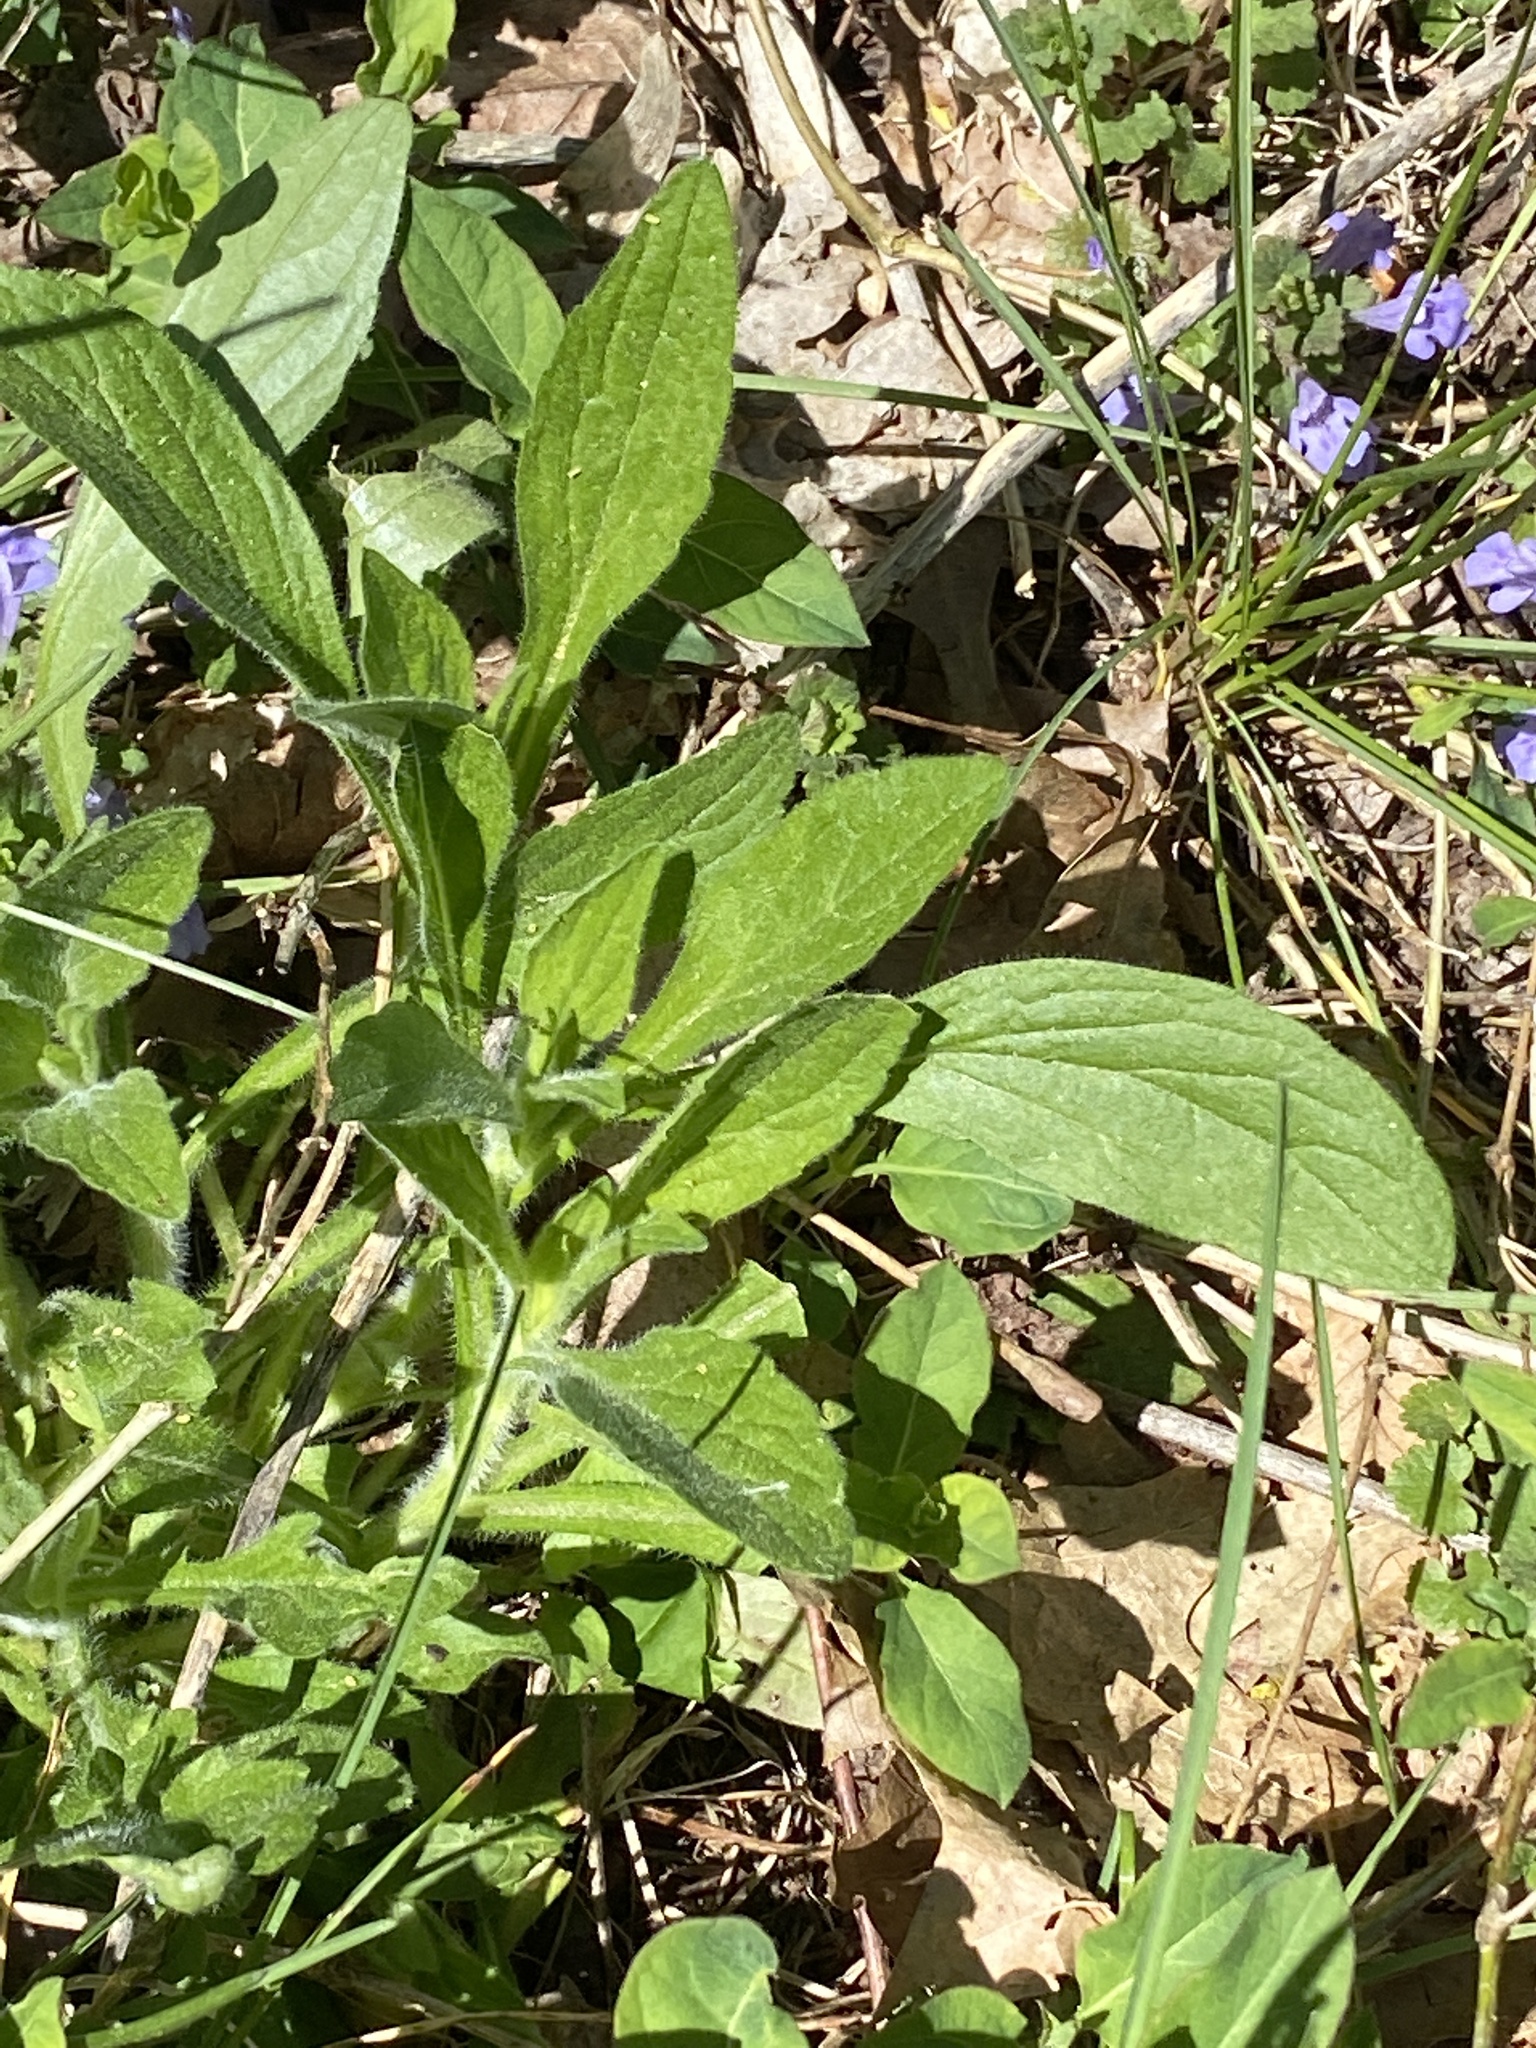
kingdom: Plantae
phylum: Tracheophyta
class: Magnoliopsida
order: Asterales
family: Asteraceae
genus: Rudbeckia
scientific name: Rudbeckia hirta
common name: Black-eyed-susan
